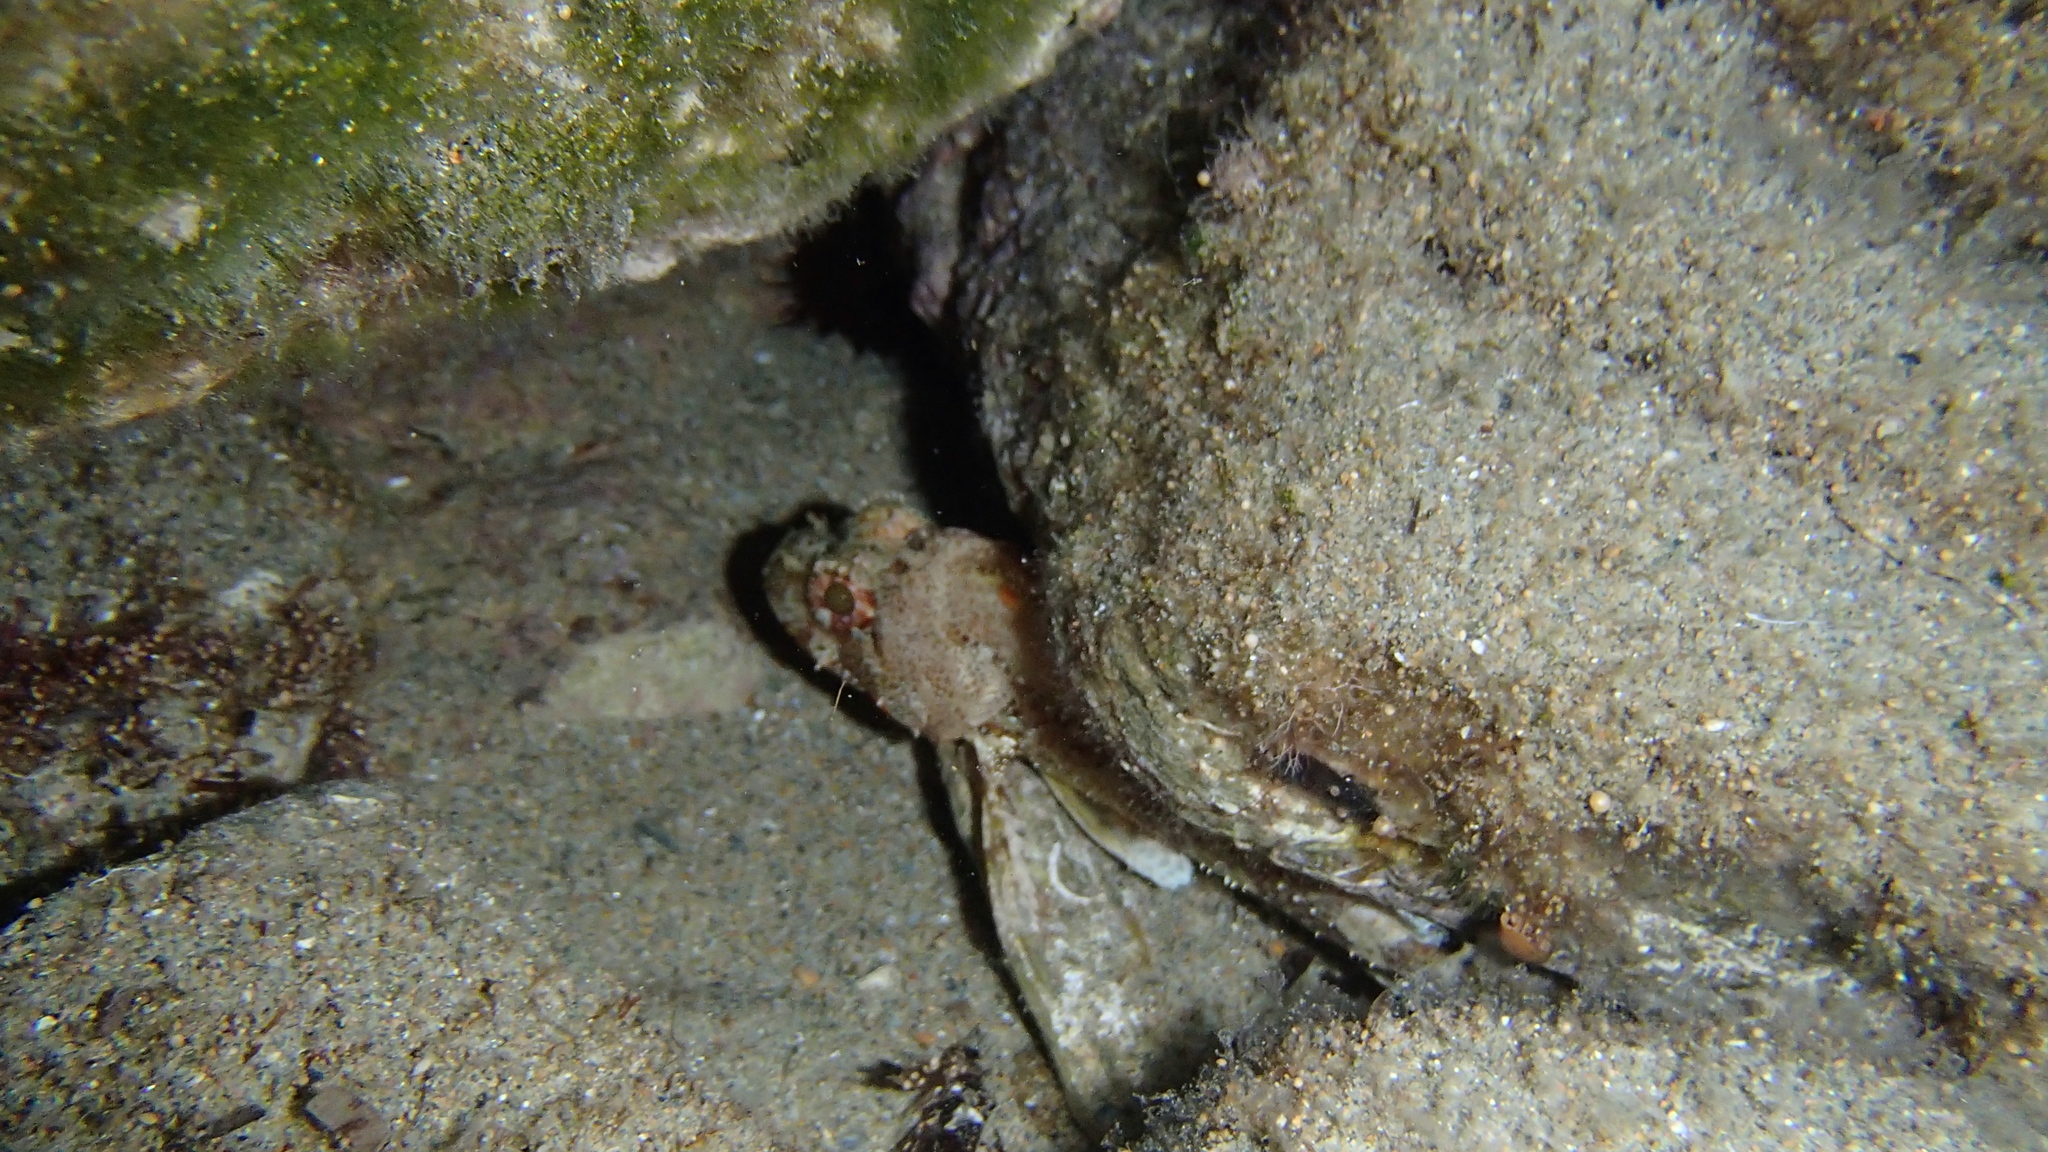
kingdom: Animalia
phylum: Chordata
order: Scorpaeniformes
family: Scorpaenidae
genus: Scorpaena
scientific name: Scorpaena maderensis
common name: Madeira rockfish
